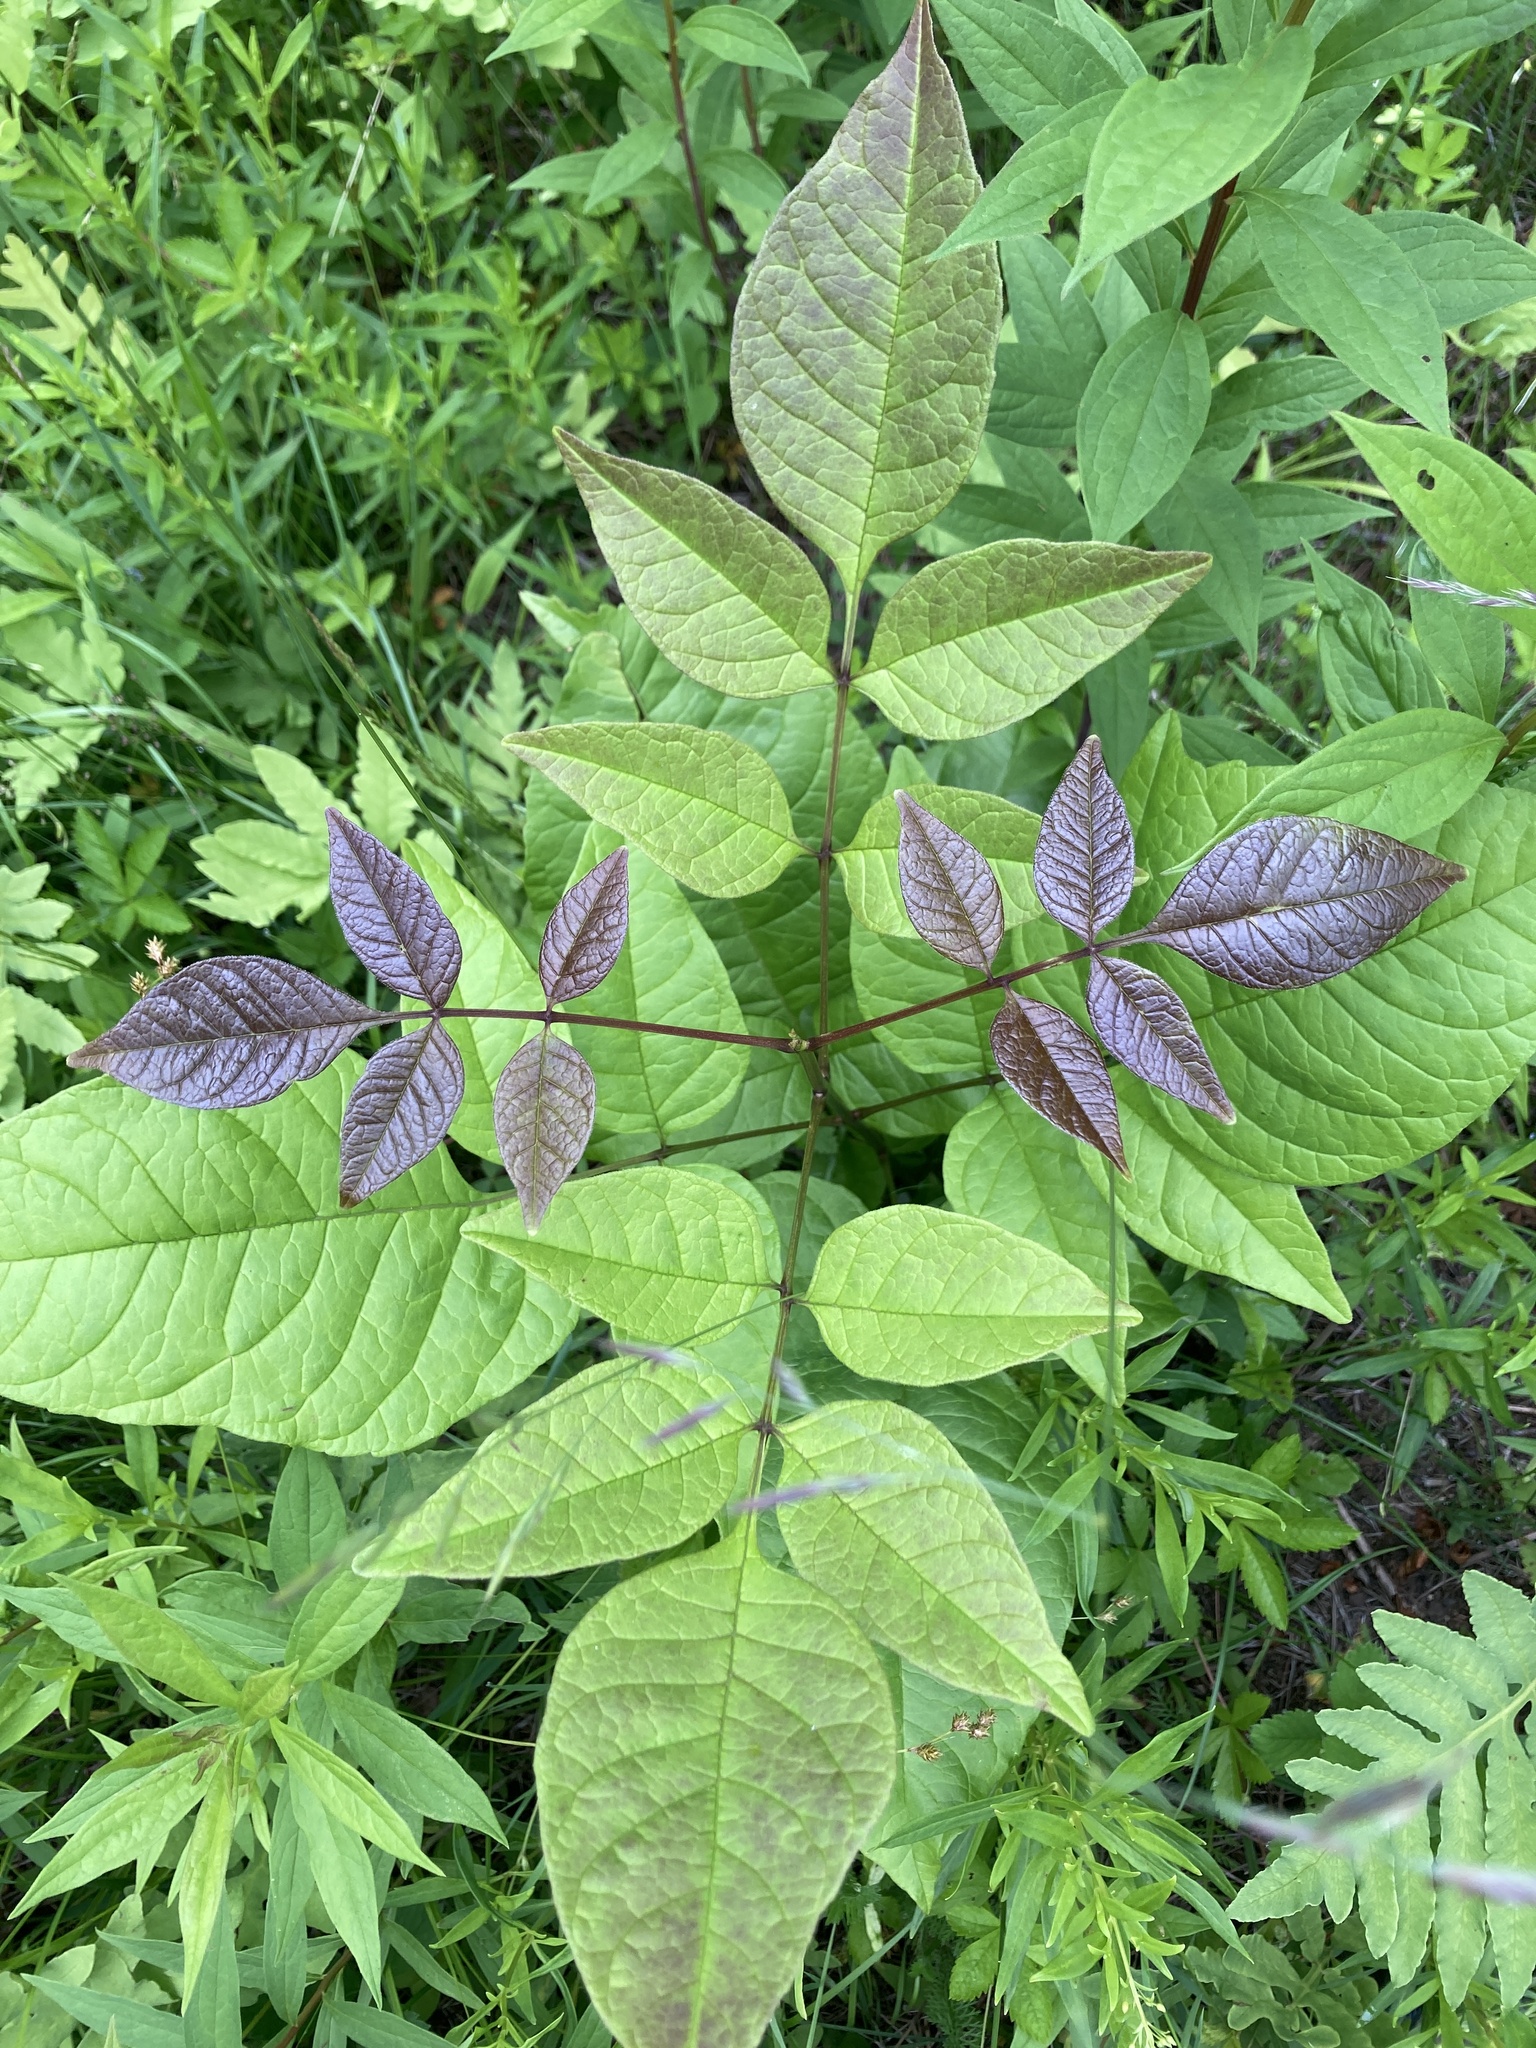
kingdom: Plantae
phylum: Tracheophyta
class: Magnoliopsida
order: Lamiales
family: Oleaceae
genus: Fraxinus
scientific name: Fraxinus americana
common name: White ash
